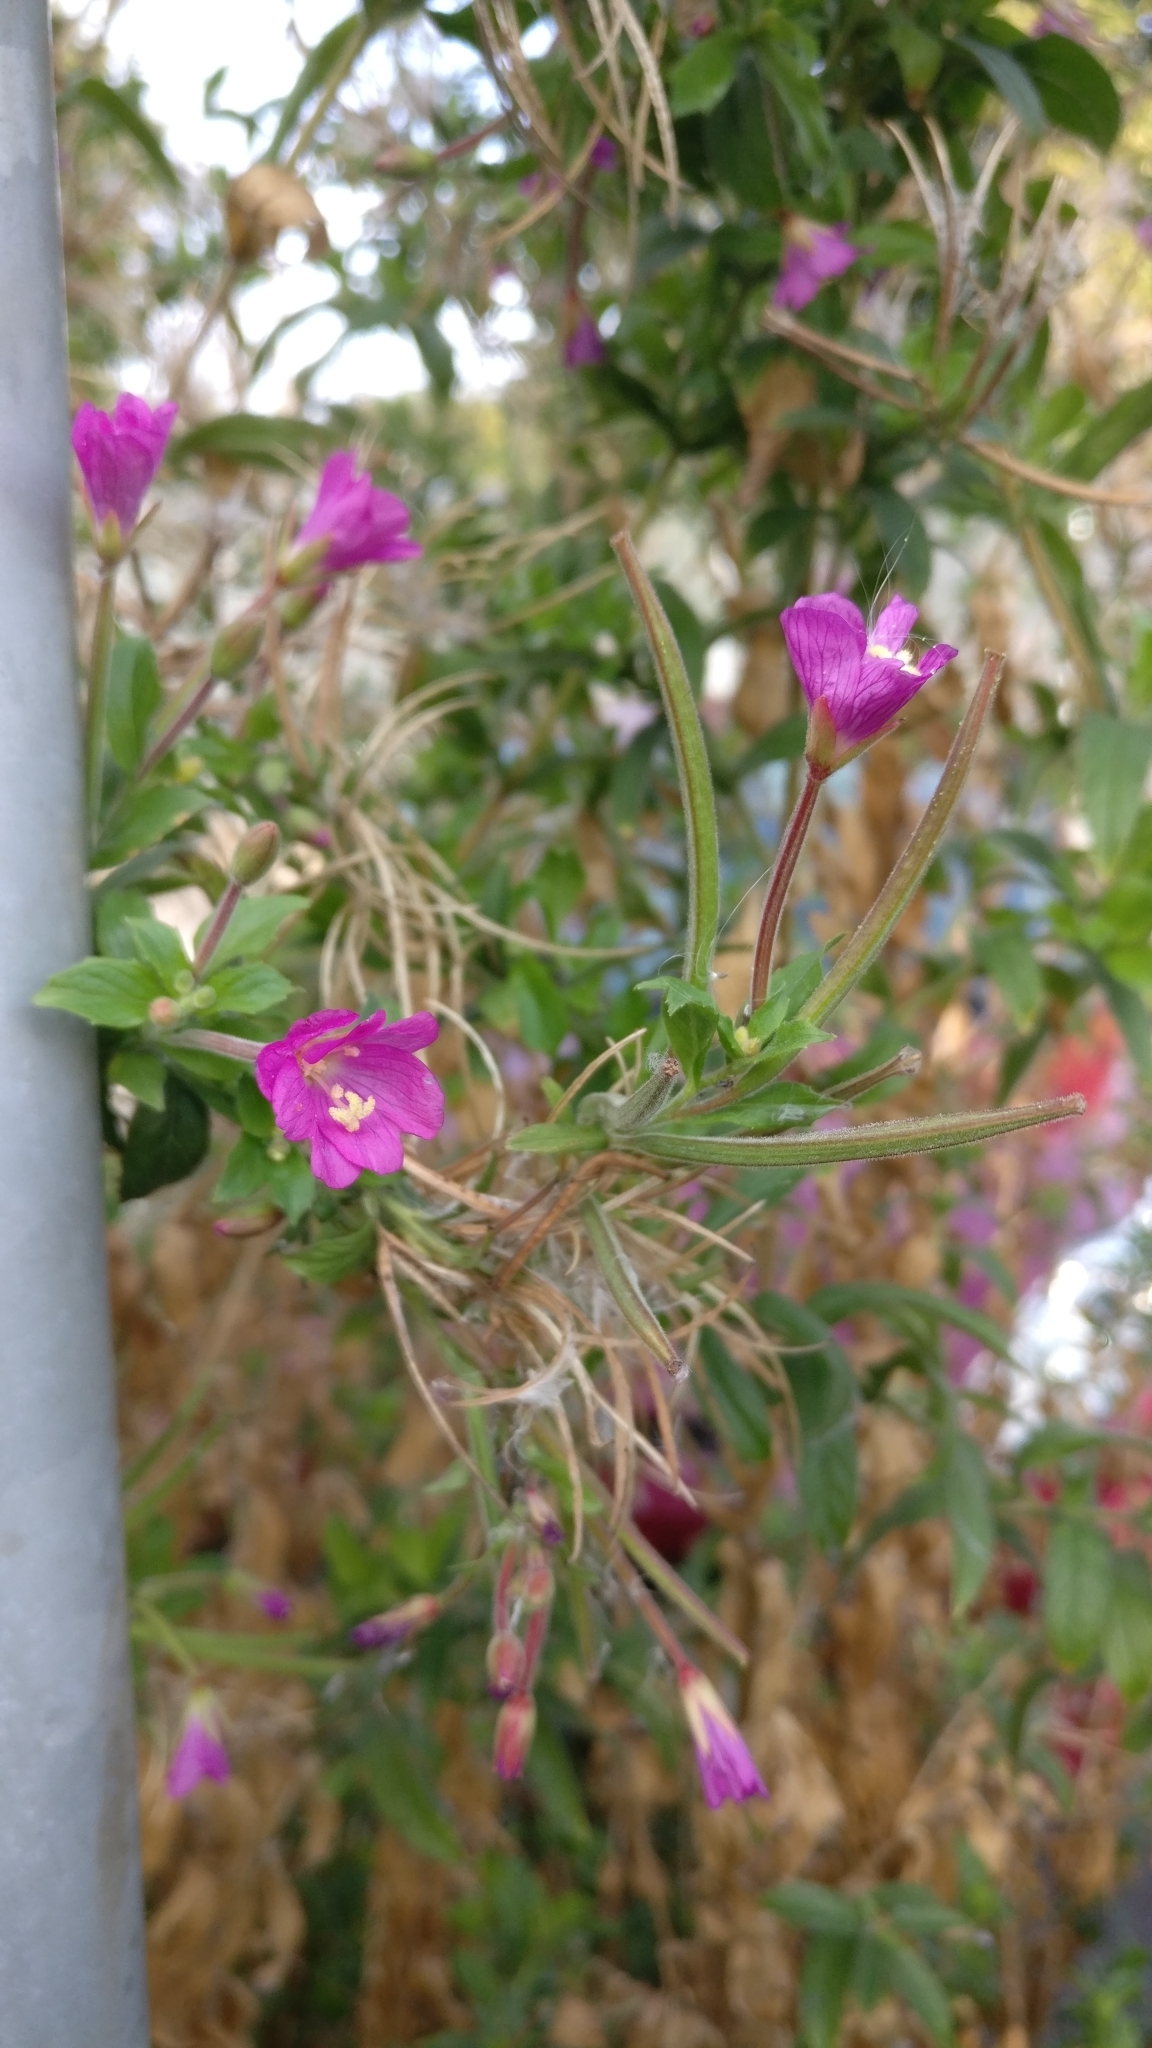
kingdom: Plantae
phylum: Tracheophyta
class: Magnoliopsida
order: Myrtales
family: Onagraceae
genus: Epilobium
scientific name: Epilobium hirsutum
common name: Great willowherb
